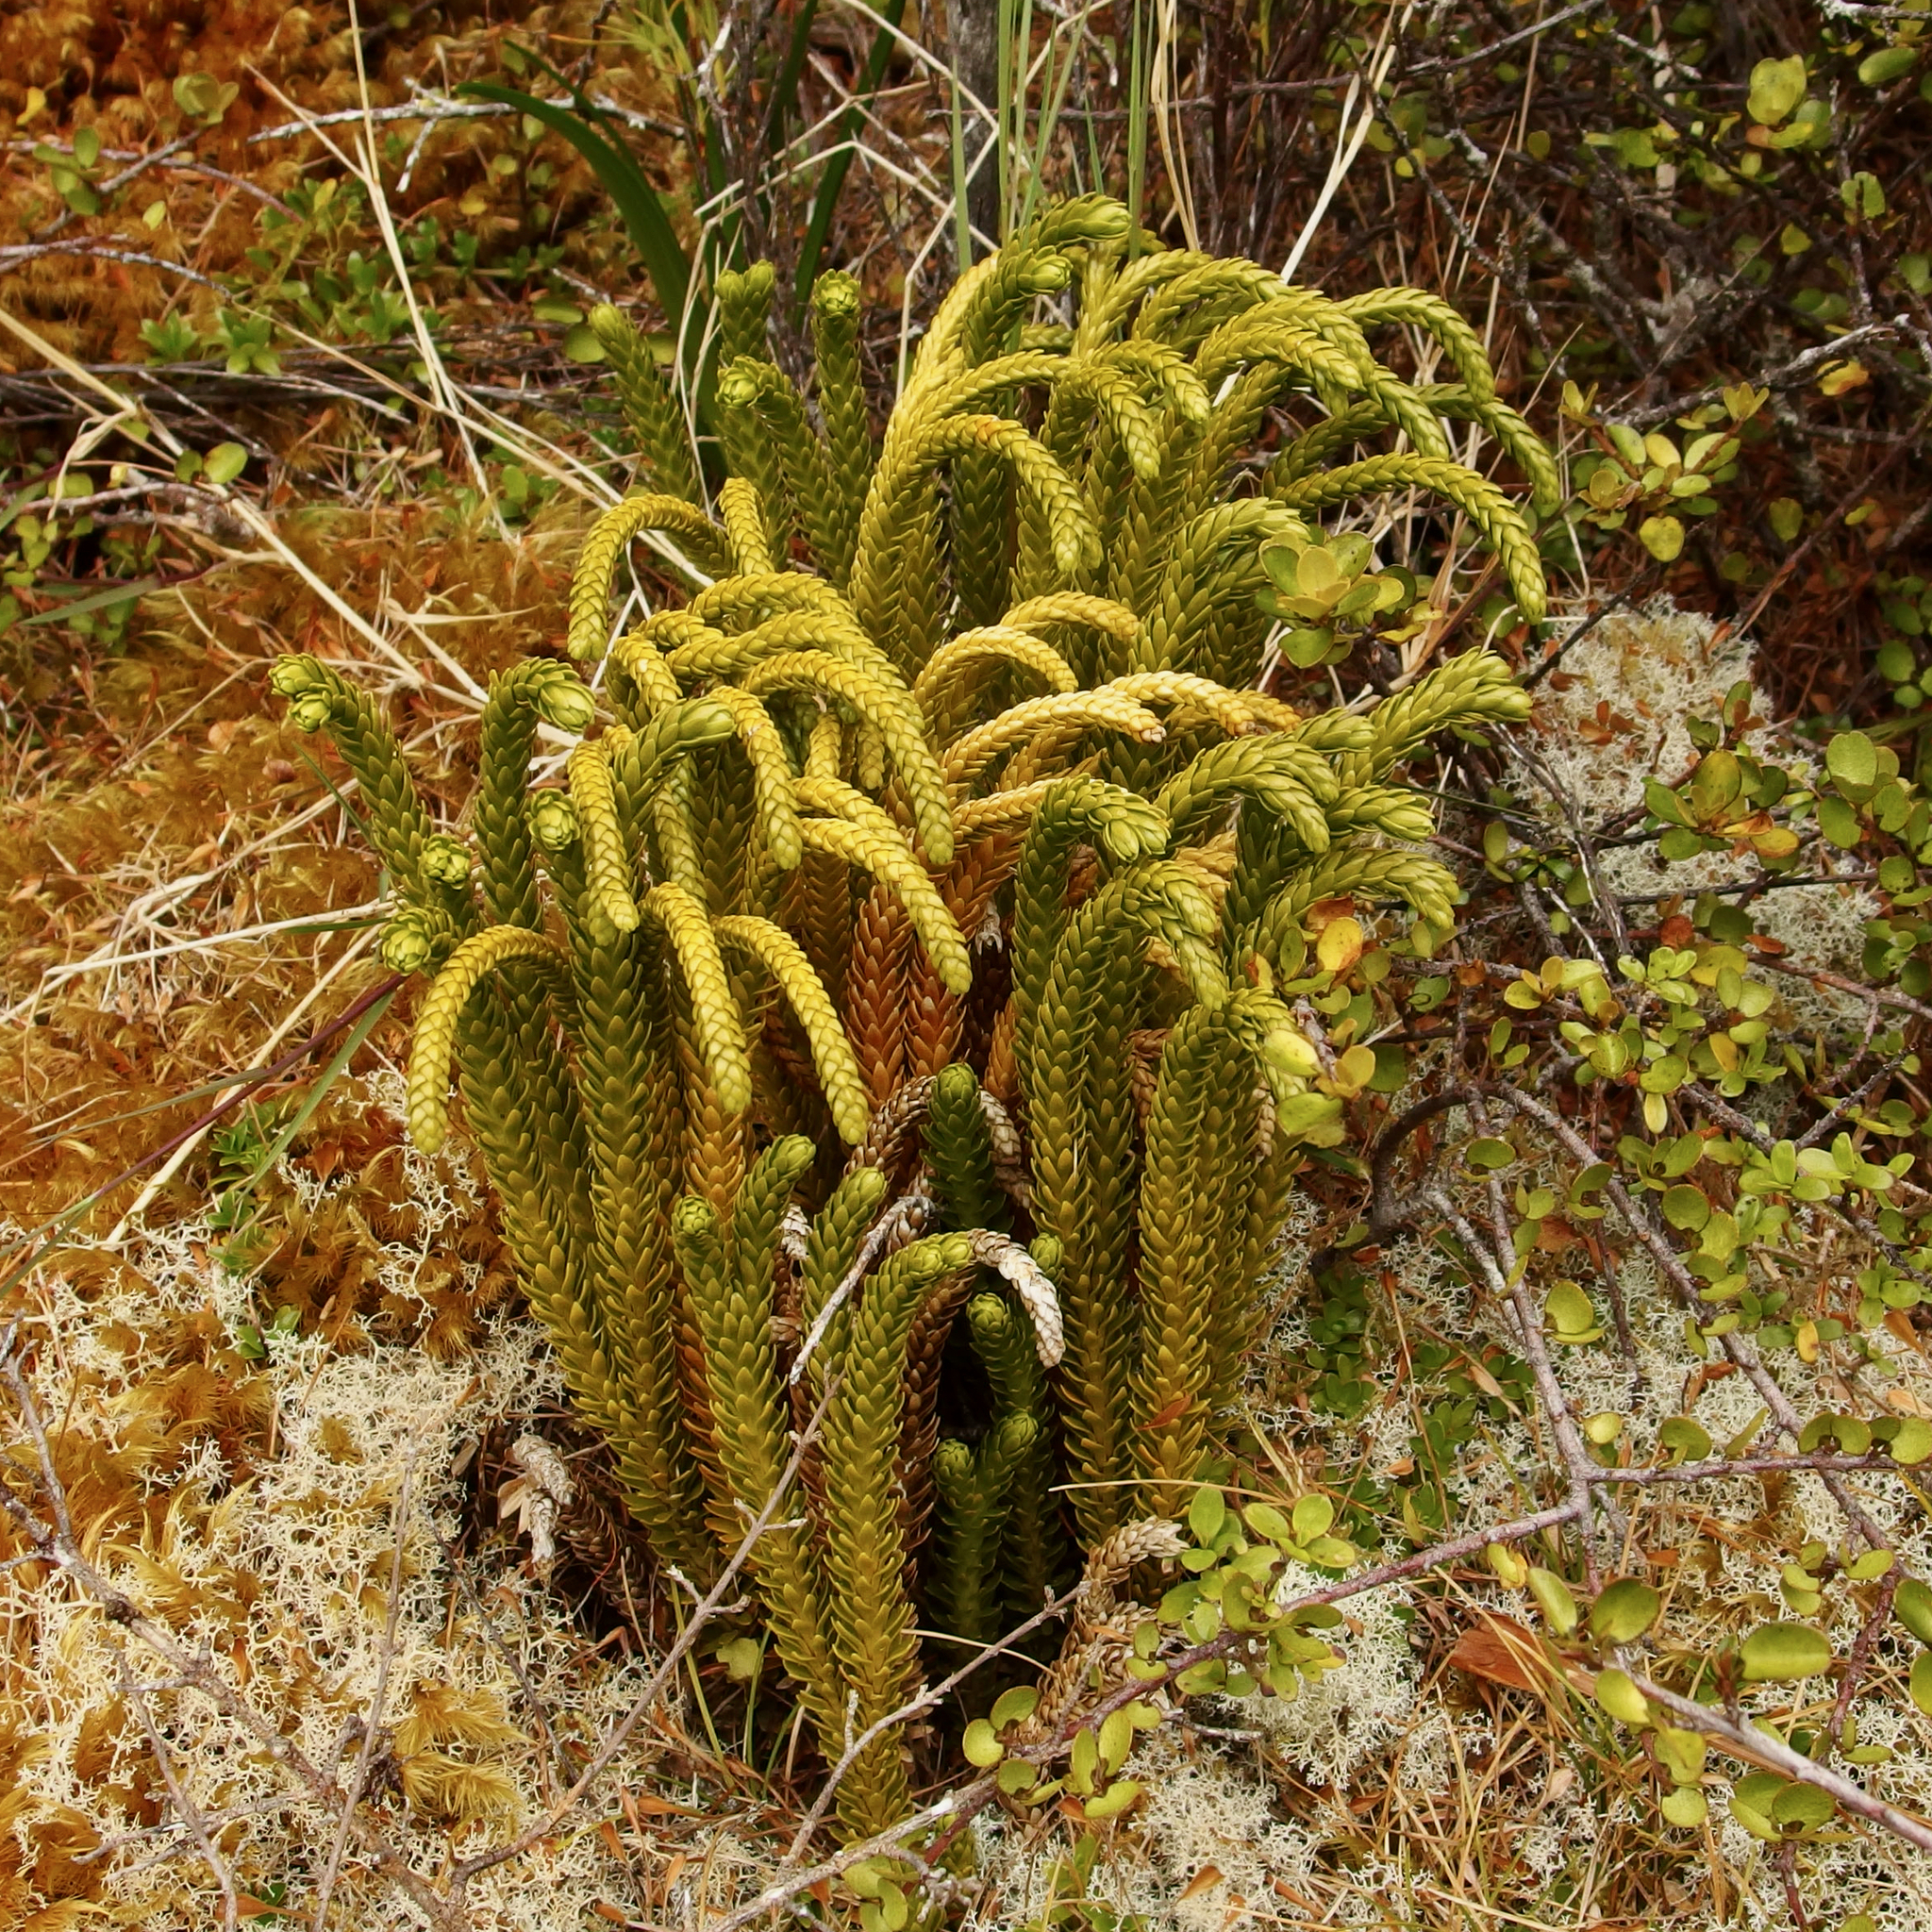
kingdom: Plantae
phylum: Tracheophyta
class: Lycopodiopsida
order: Lycopodiales
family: Lycopodiaceae
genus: Phlegmariurus
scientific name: Phlegmariurus varius
